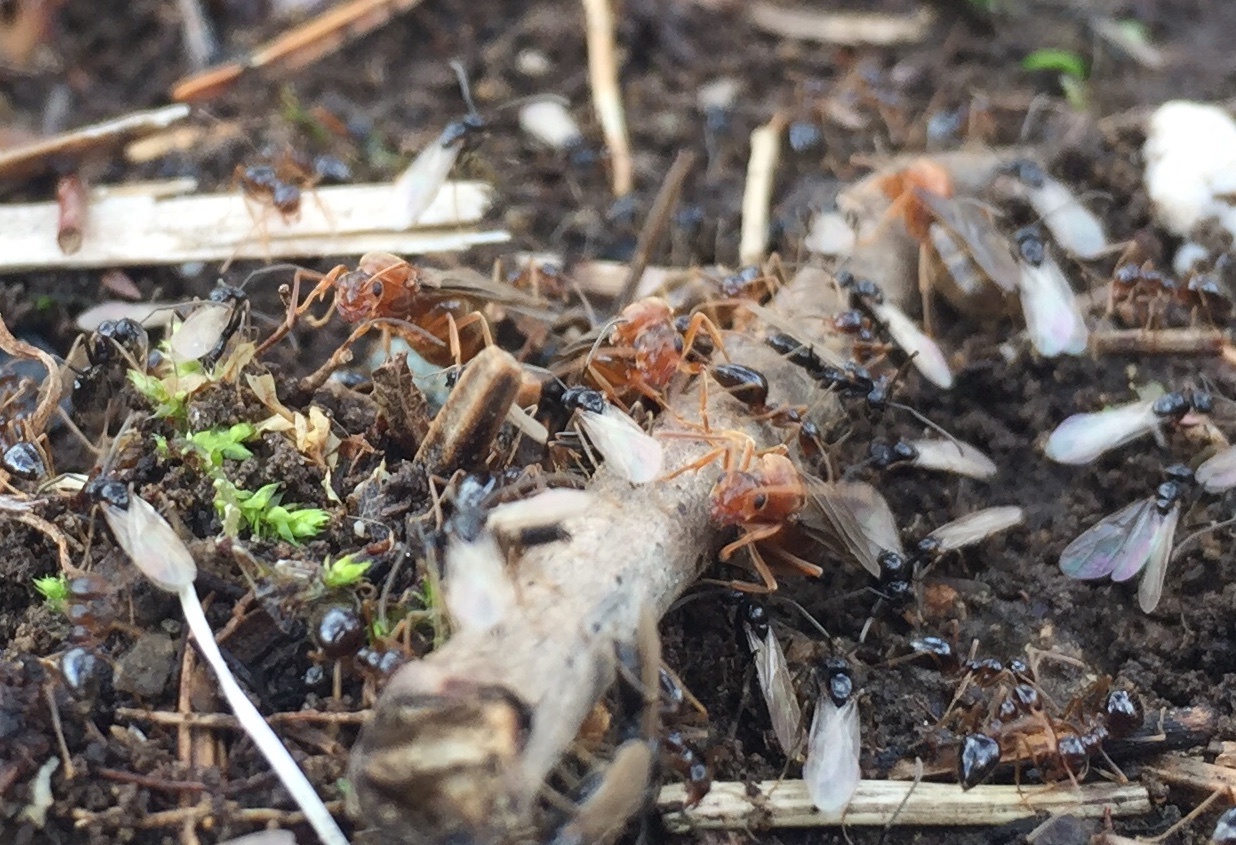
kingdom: Animalia
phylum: Arthropoda
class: Insecta
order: Hymenoptera
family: Formicidae
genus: Prenolepis
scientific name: Prenolepis imparis
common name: Small honey ant
